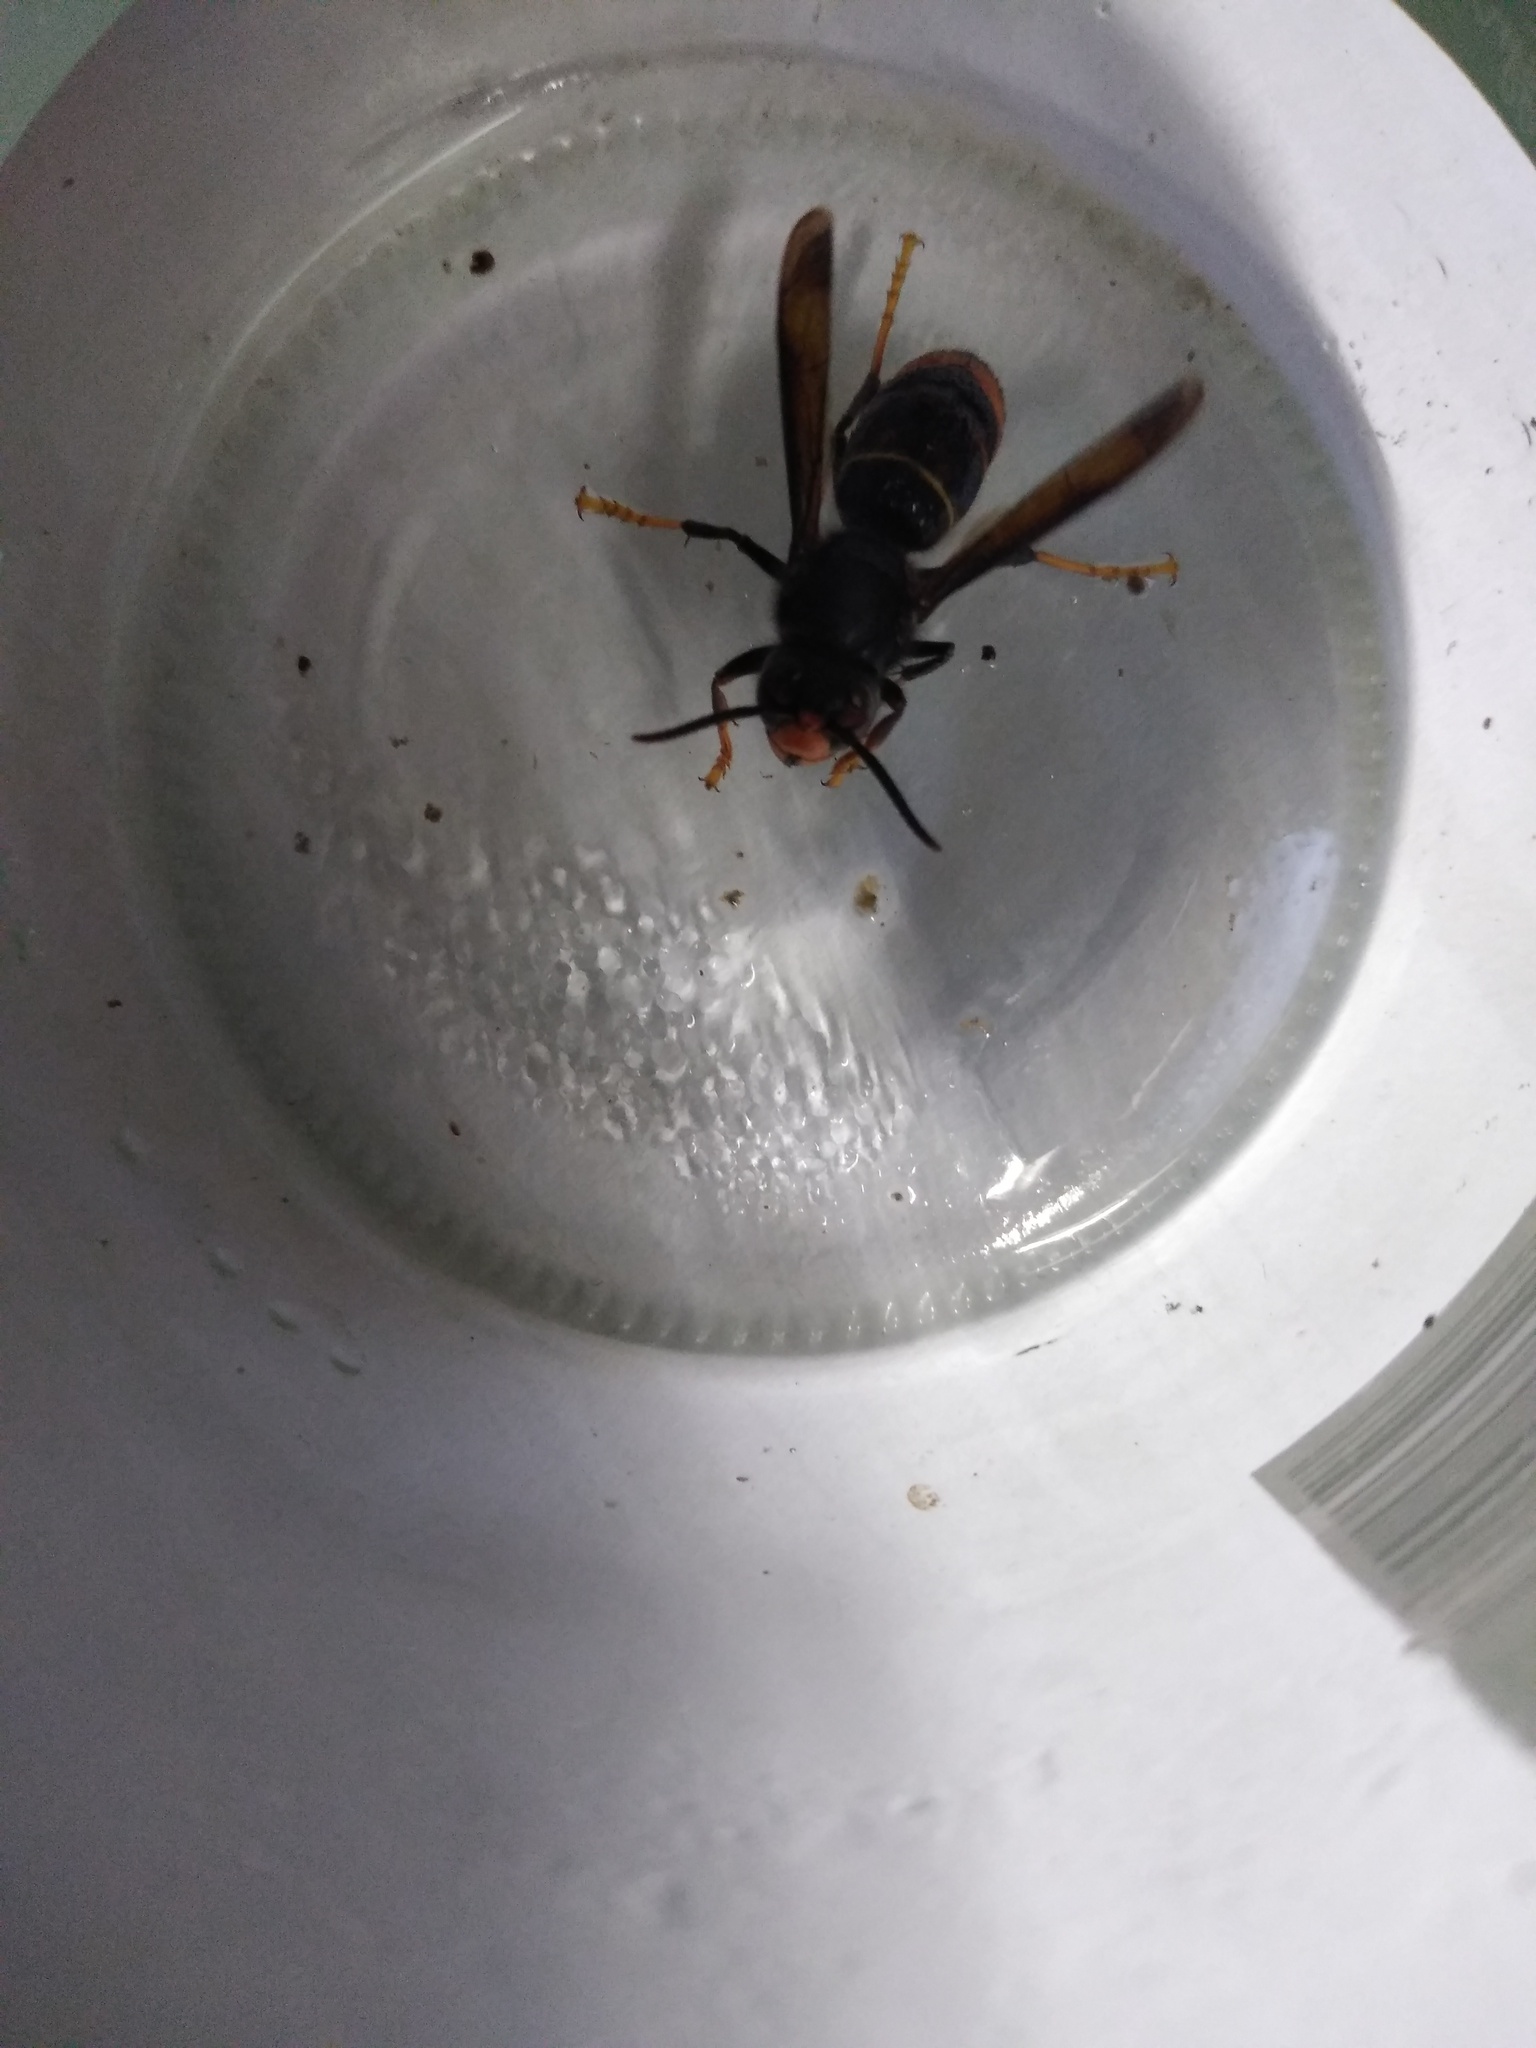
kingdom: Animalia
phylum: Arthropoda
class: Insecta
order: Hymenoptera
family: Vespidae
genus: Vespa
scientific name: Vespa velutina
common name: Asian hornet
